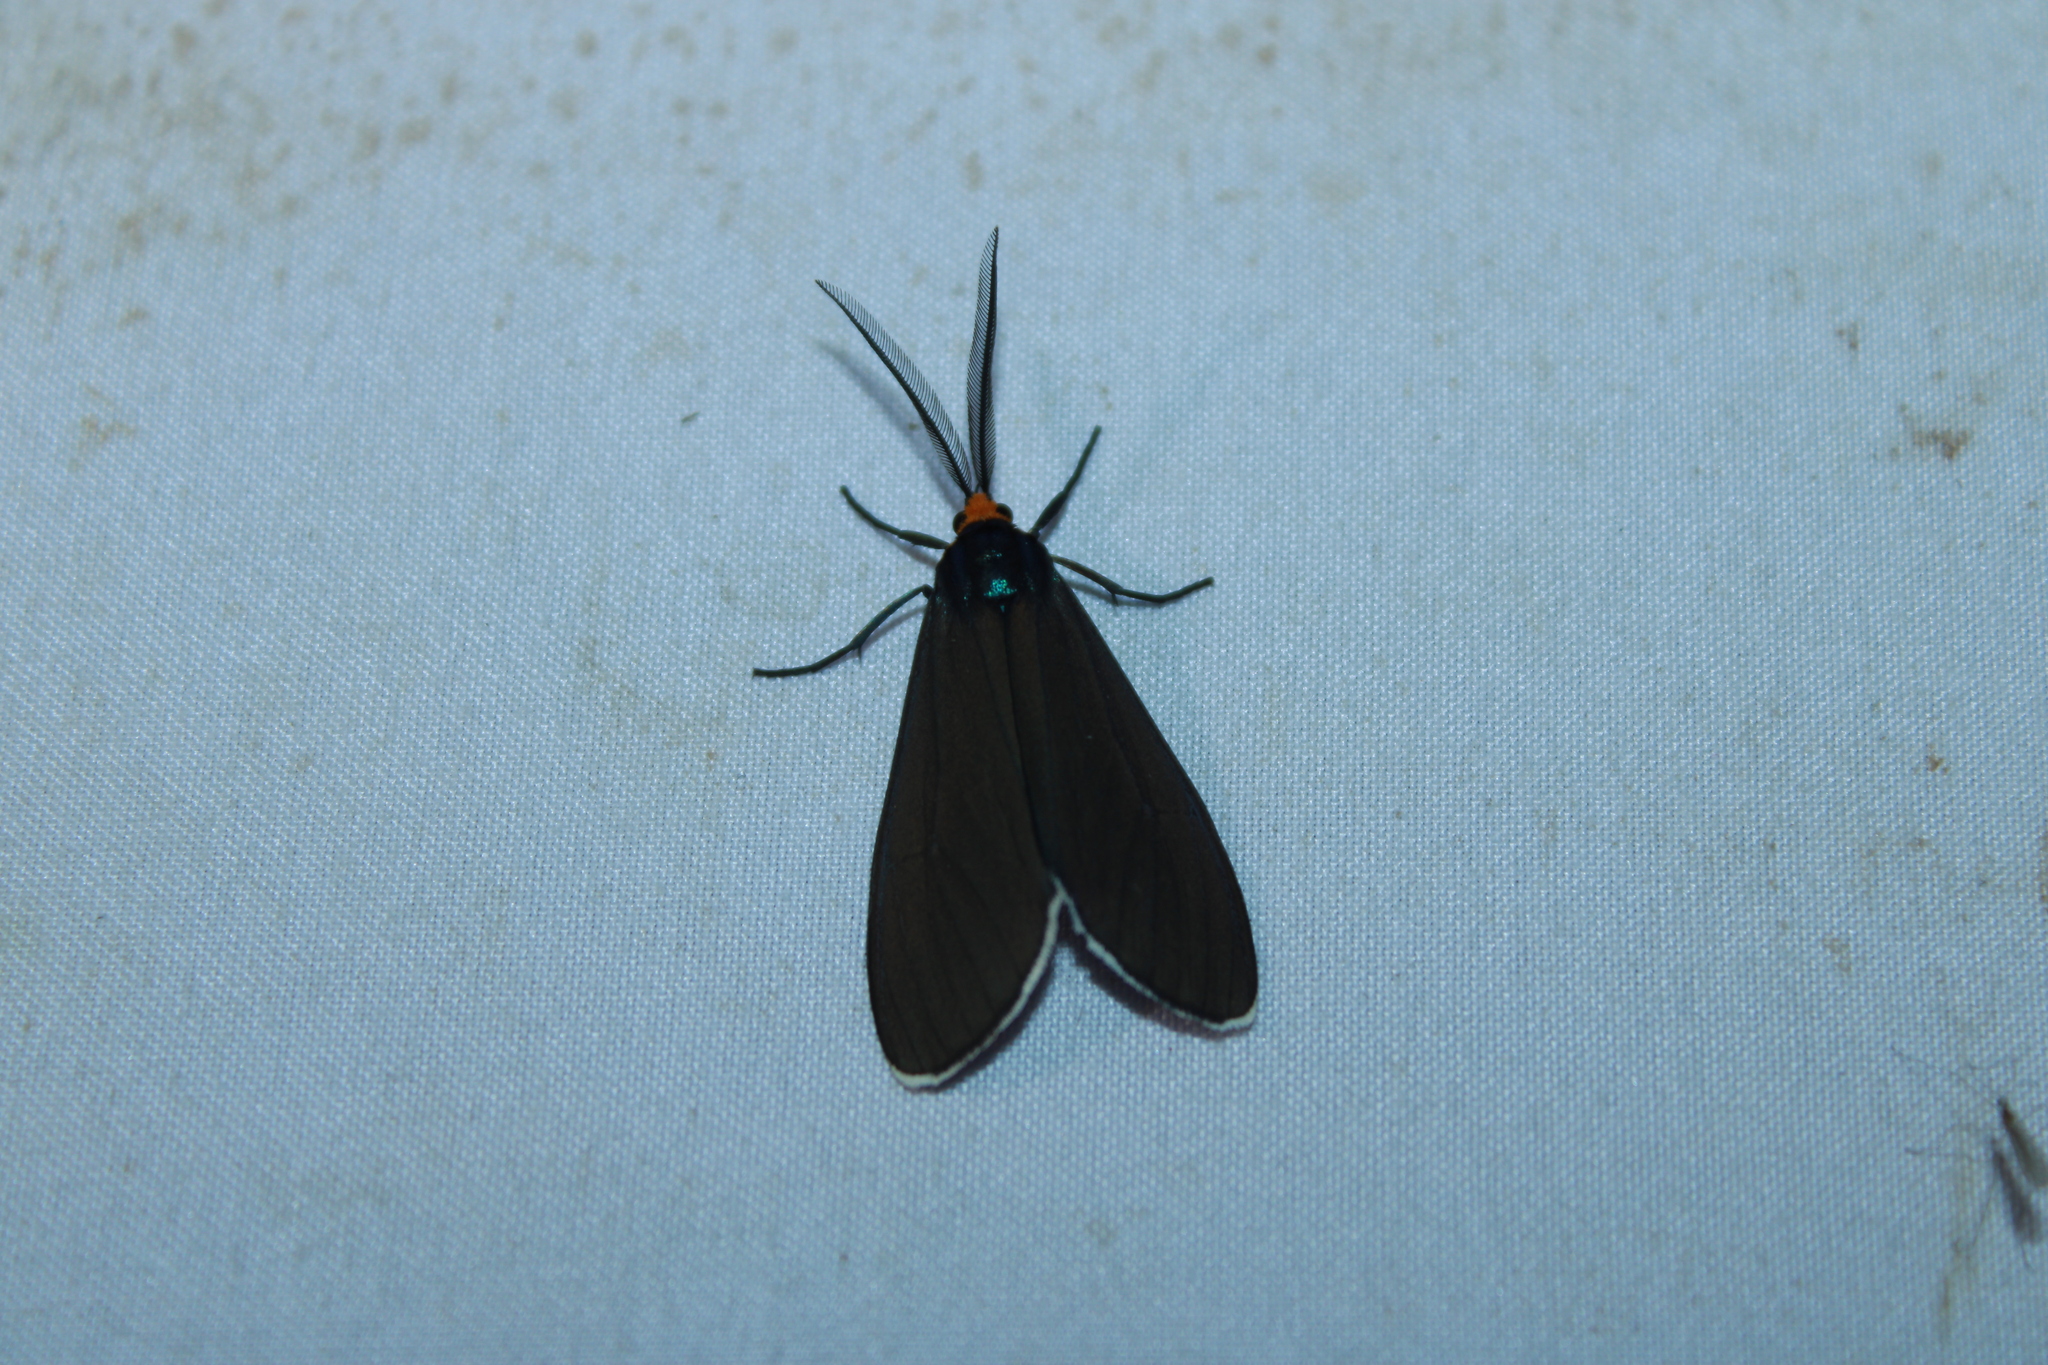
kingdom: Animalia
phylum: Arthropoda
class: Insecta
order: Lepidoptera
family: Erebidae
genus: Ctenucha
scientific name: Ctenucha virginica
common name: Virginia ctenucha moth
